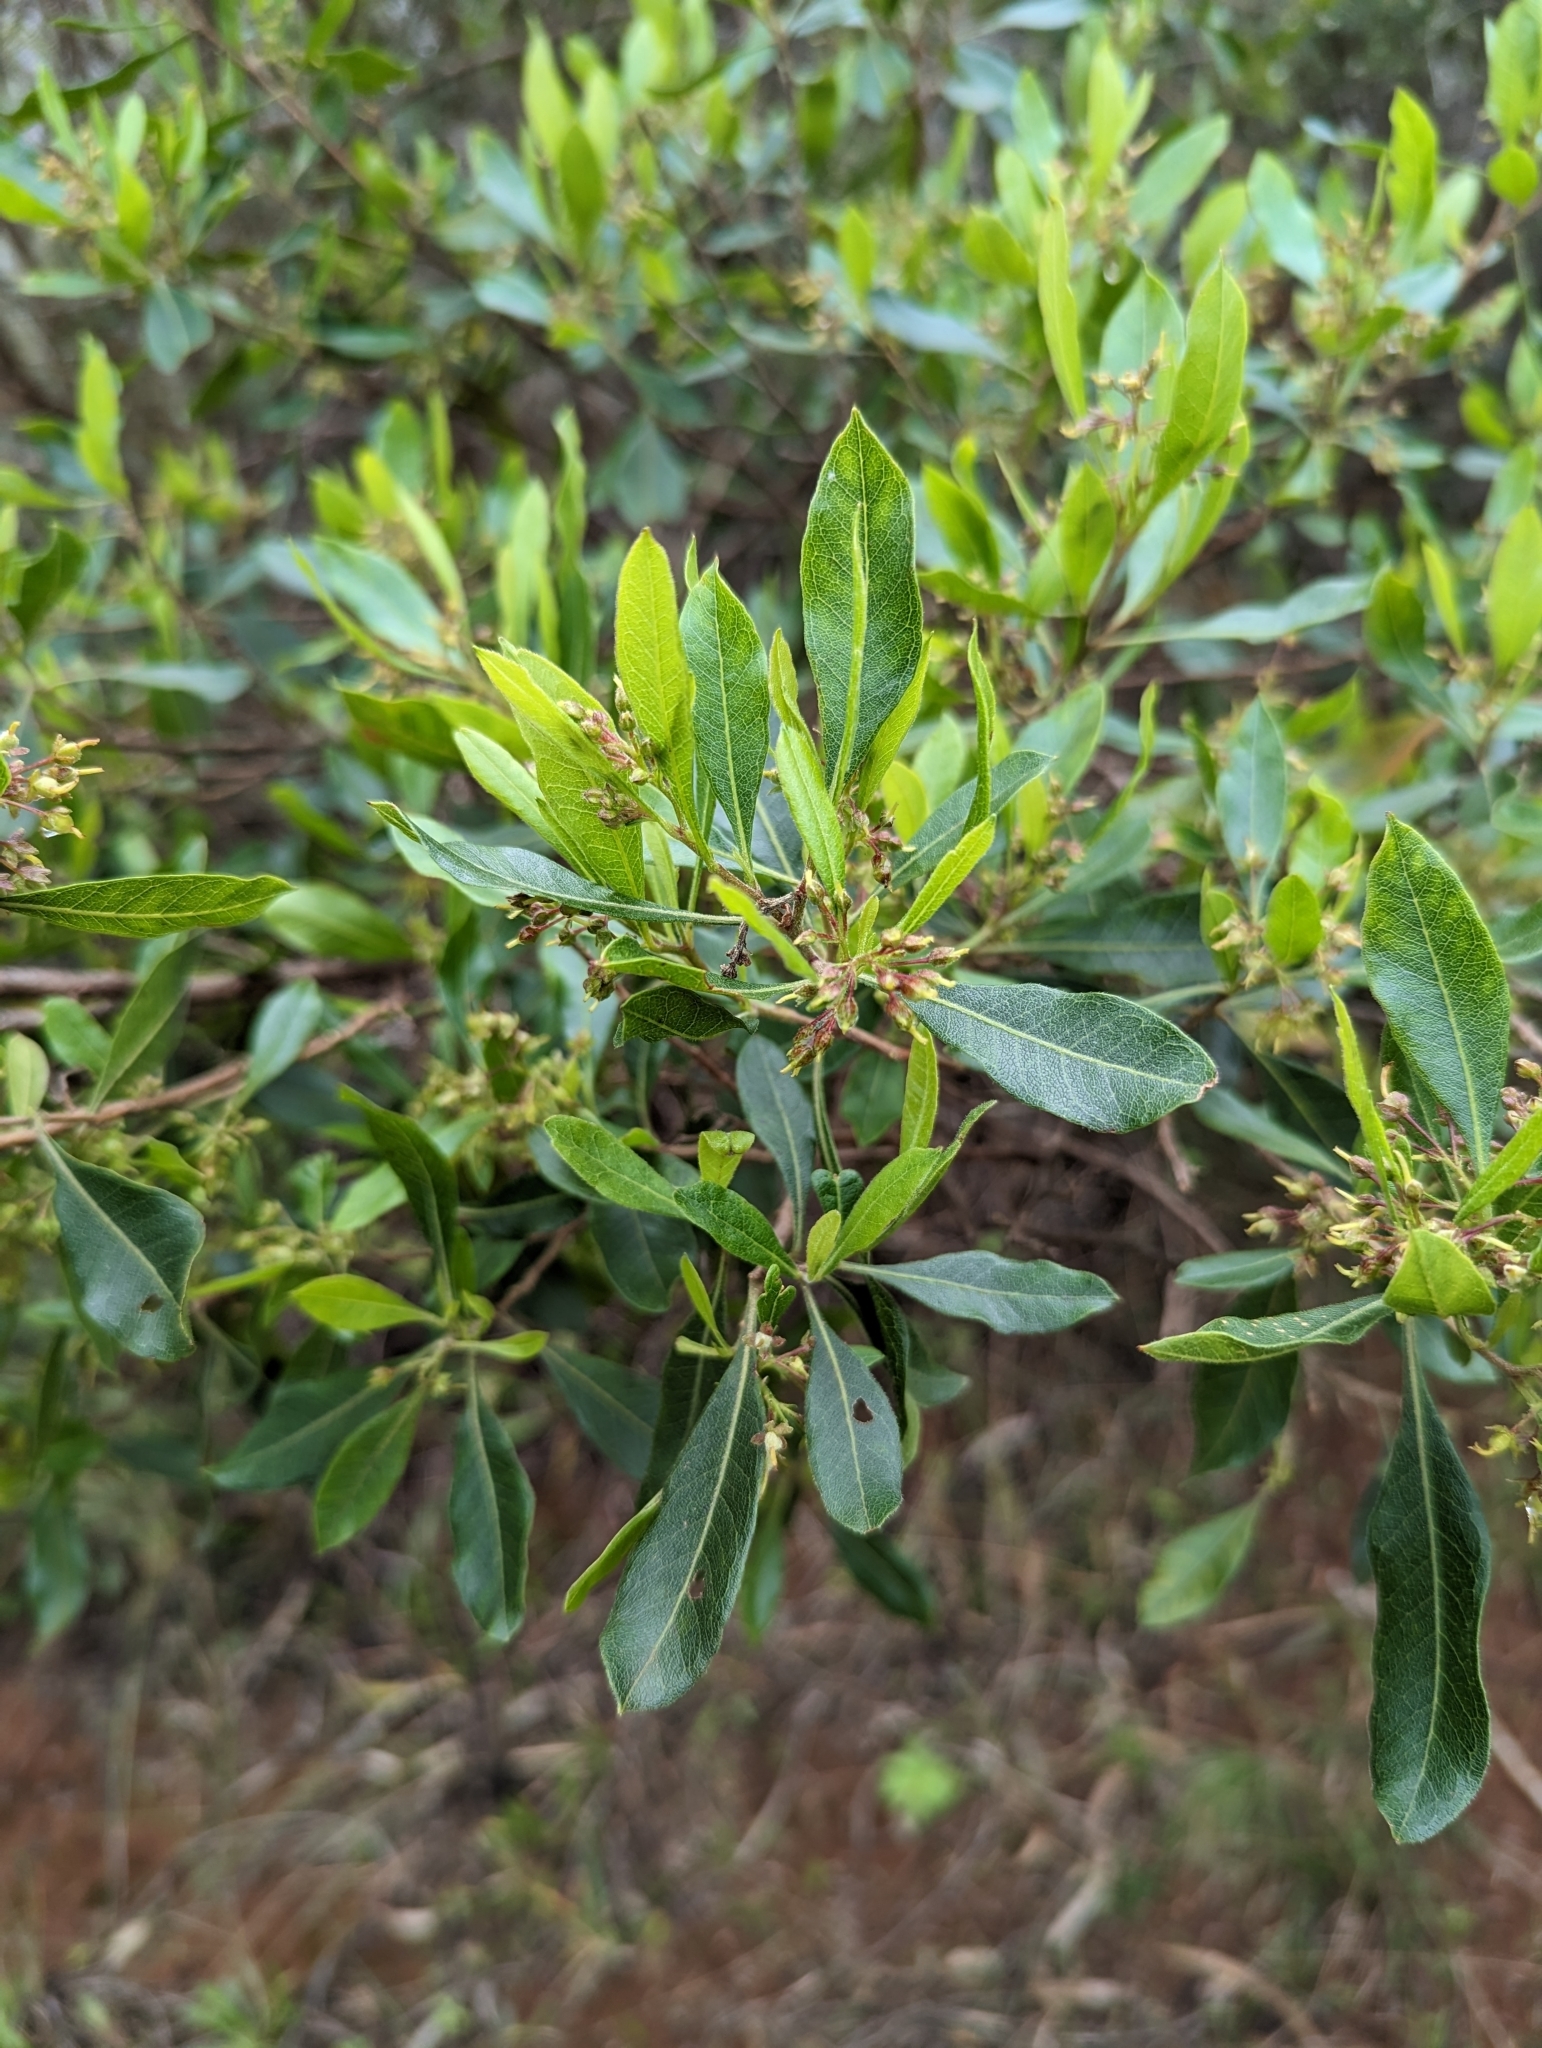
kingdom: Plantae
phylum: Tracheophyta
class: Magnoliopsida
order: Sapindales
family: Sapindaceae
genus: Dodonaea
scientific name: Dodonaea viscosa
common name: Hopbush
